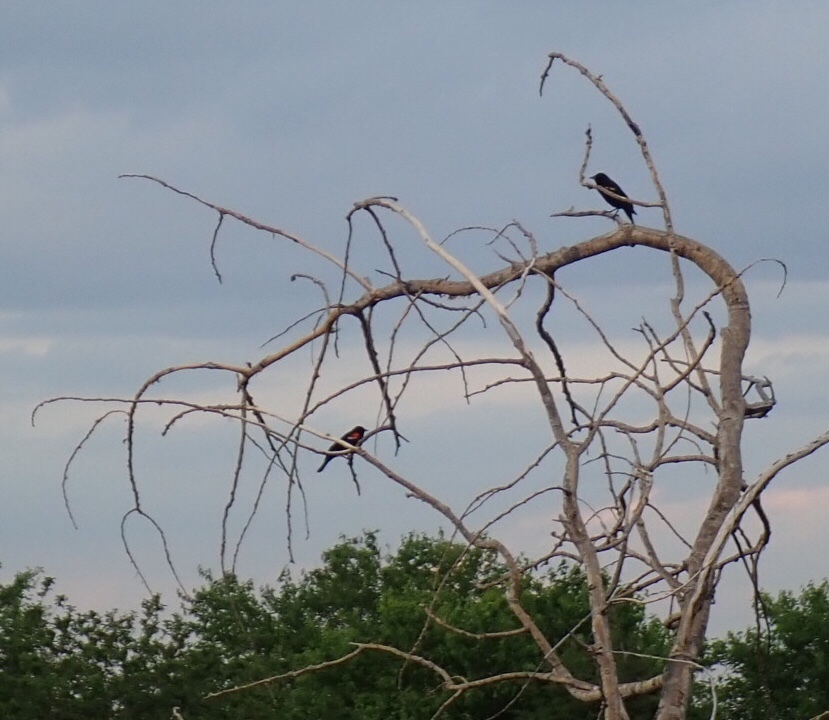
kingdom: Animalia
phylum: Chordata
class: Aves
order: Passeriformes
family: Icteridae
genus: Agelaius
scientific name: Agelaius phoeniceus
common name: Red-winged blackbird
